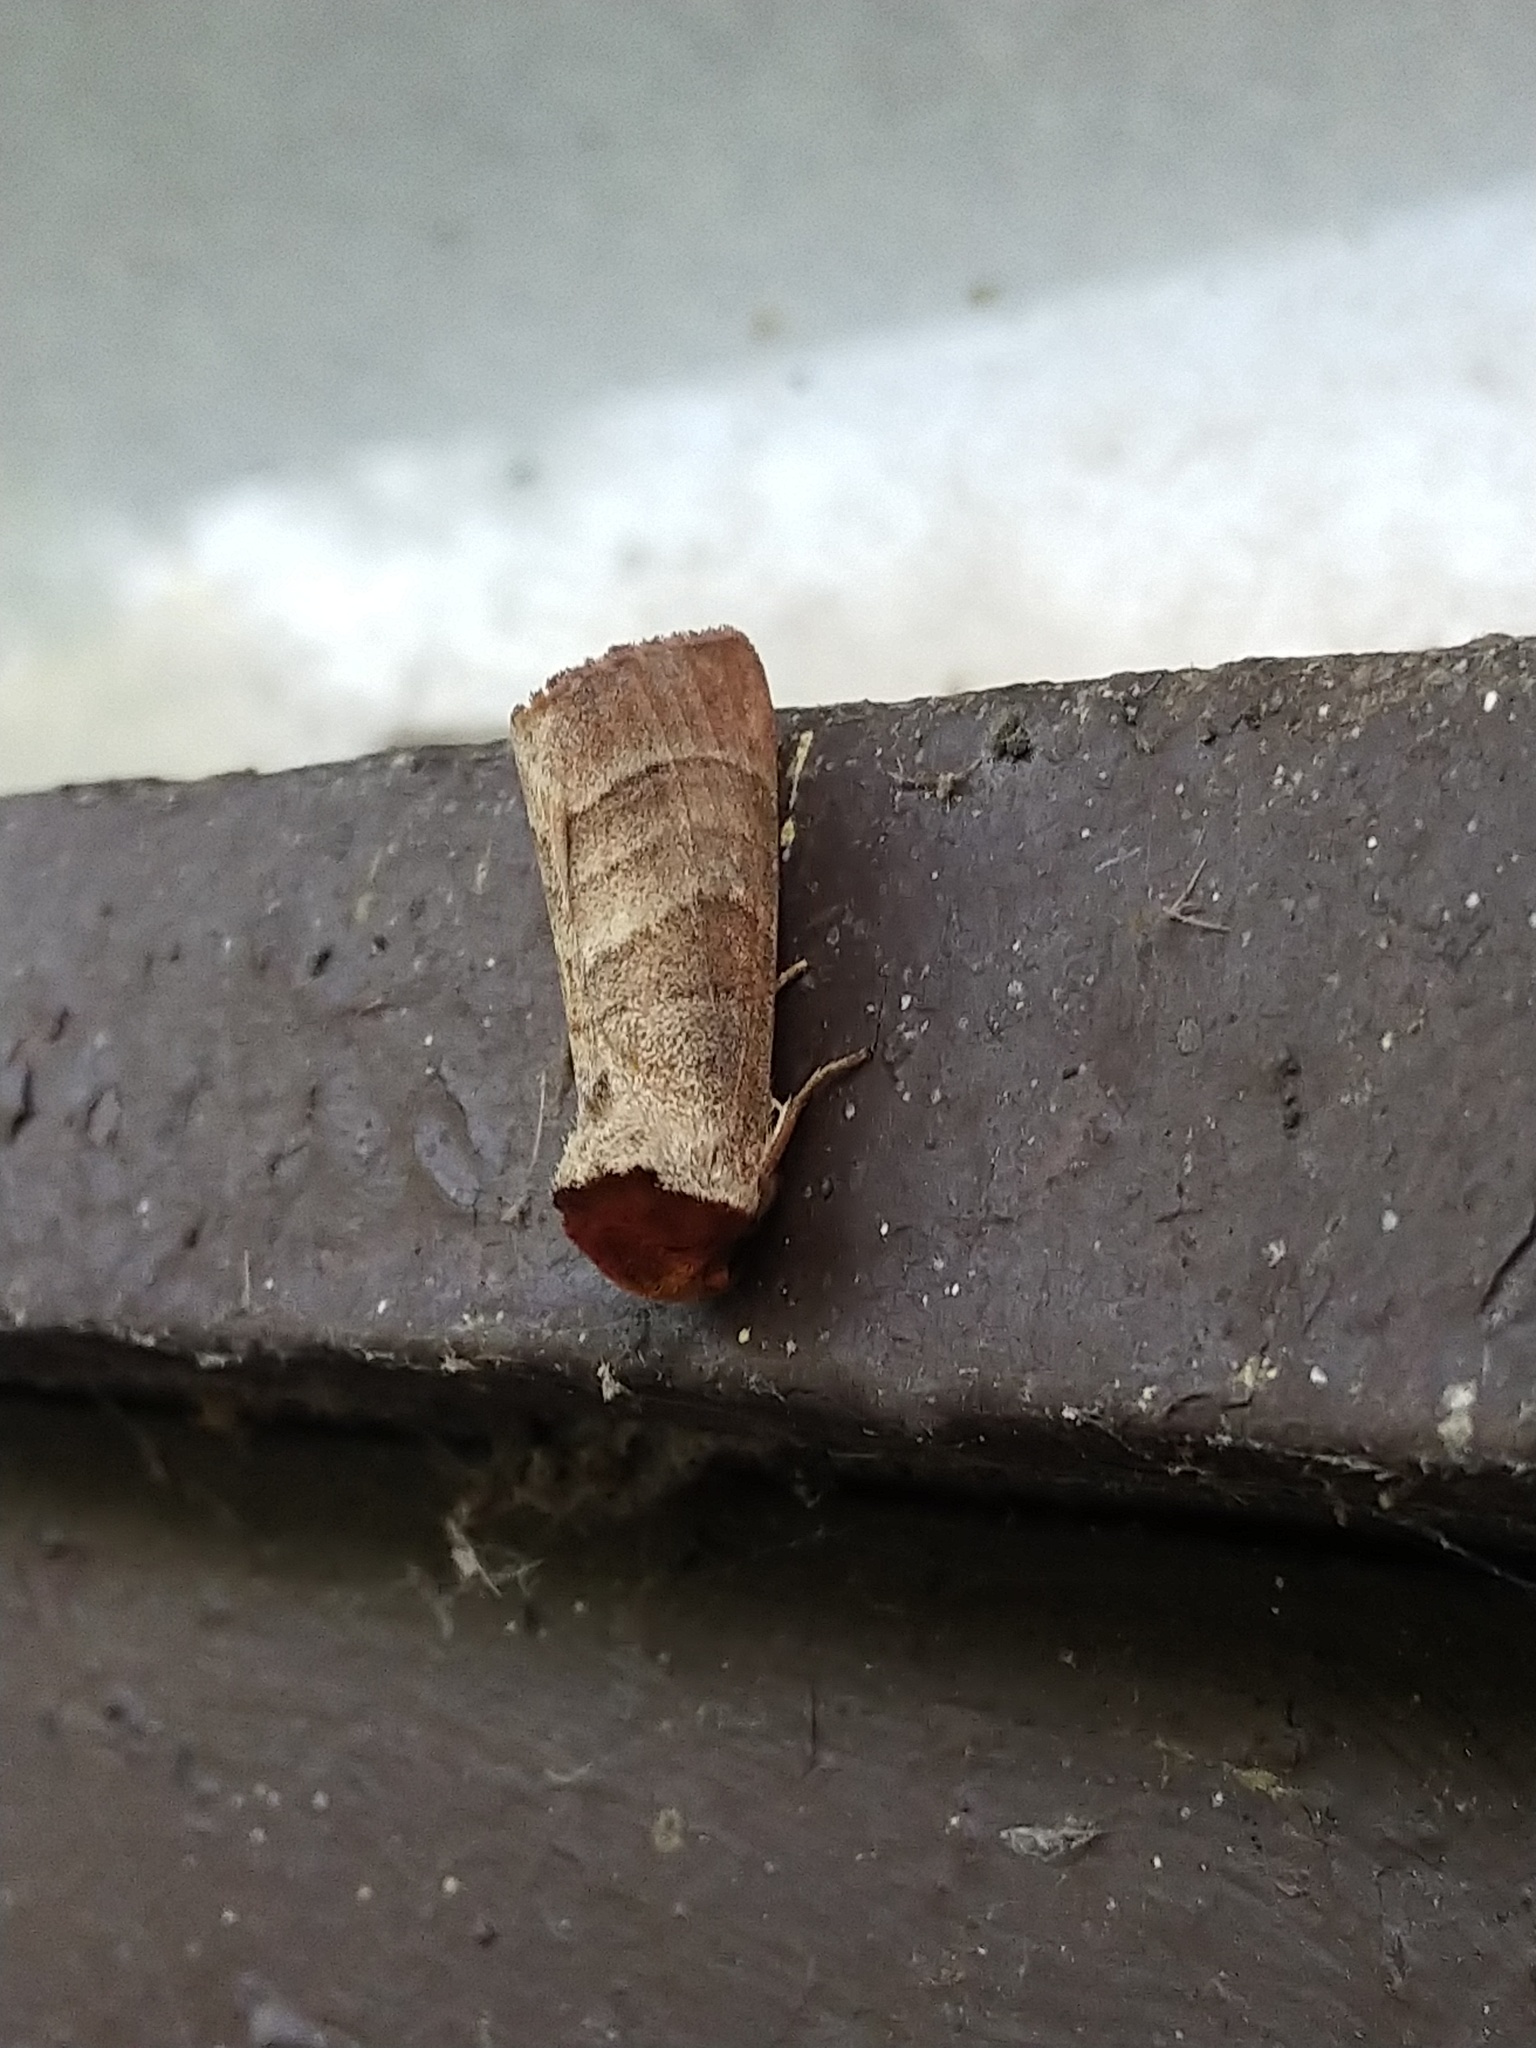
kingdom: Animalia
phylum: Arthropoda
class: Insecta
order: Lepidoptera
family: Notodontidae
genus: Datana
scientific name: Datana integerrima
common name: Walnut caterpillar
